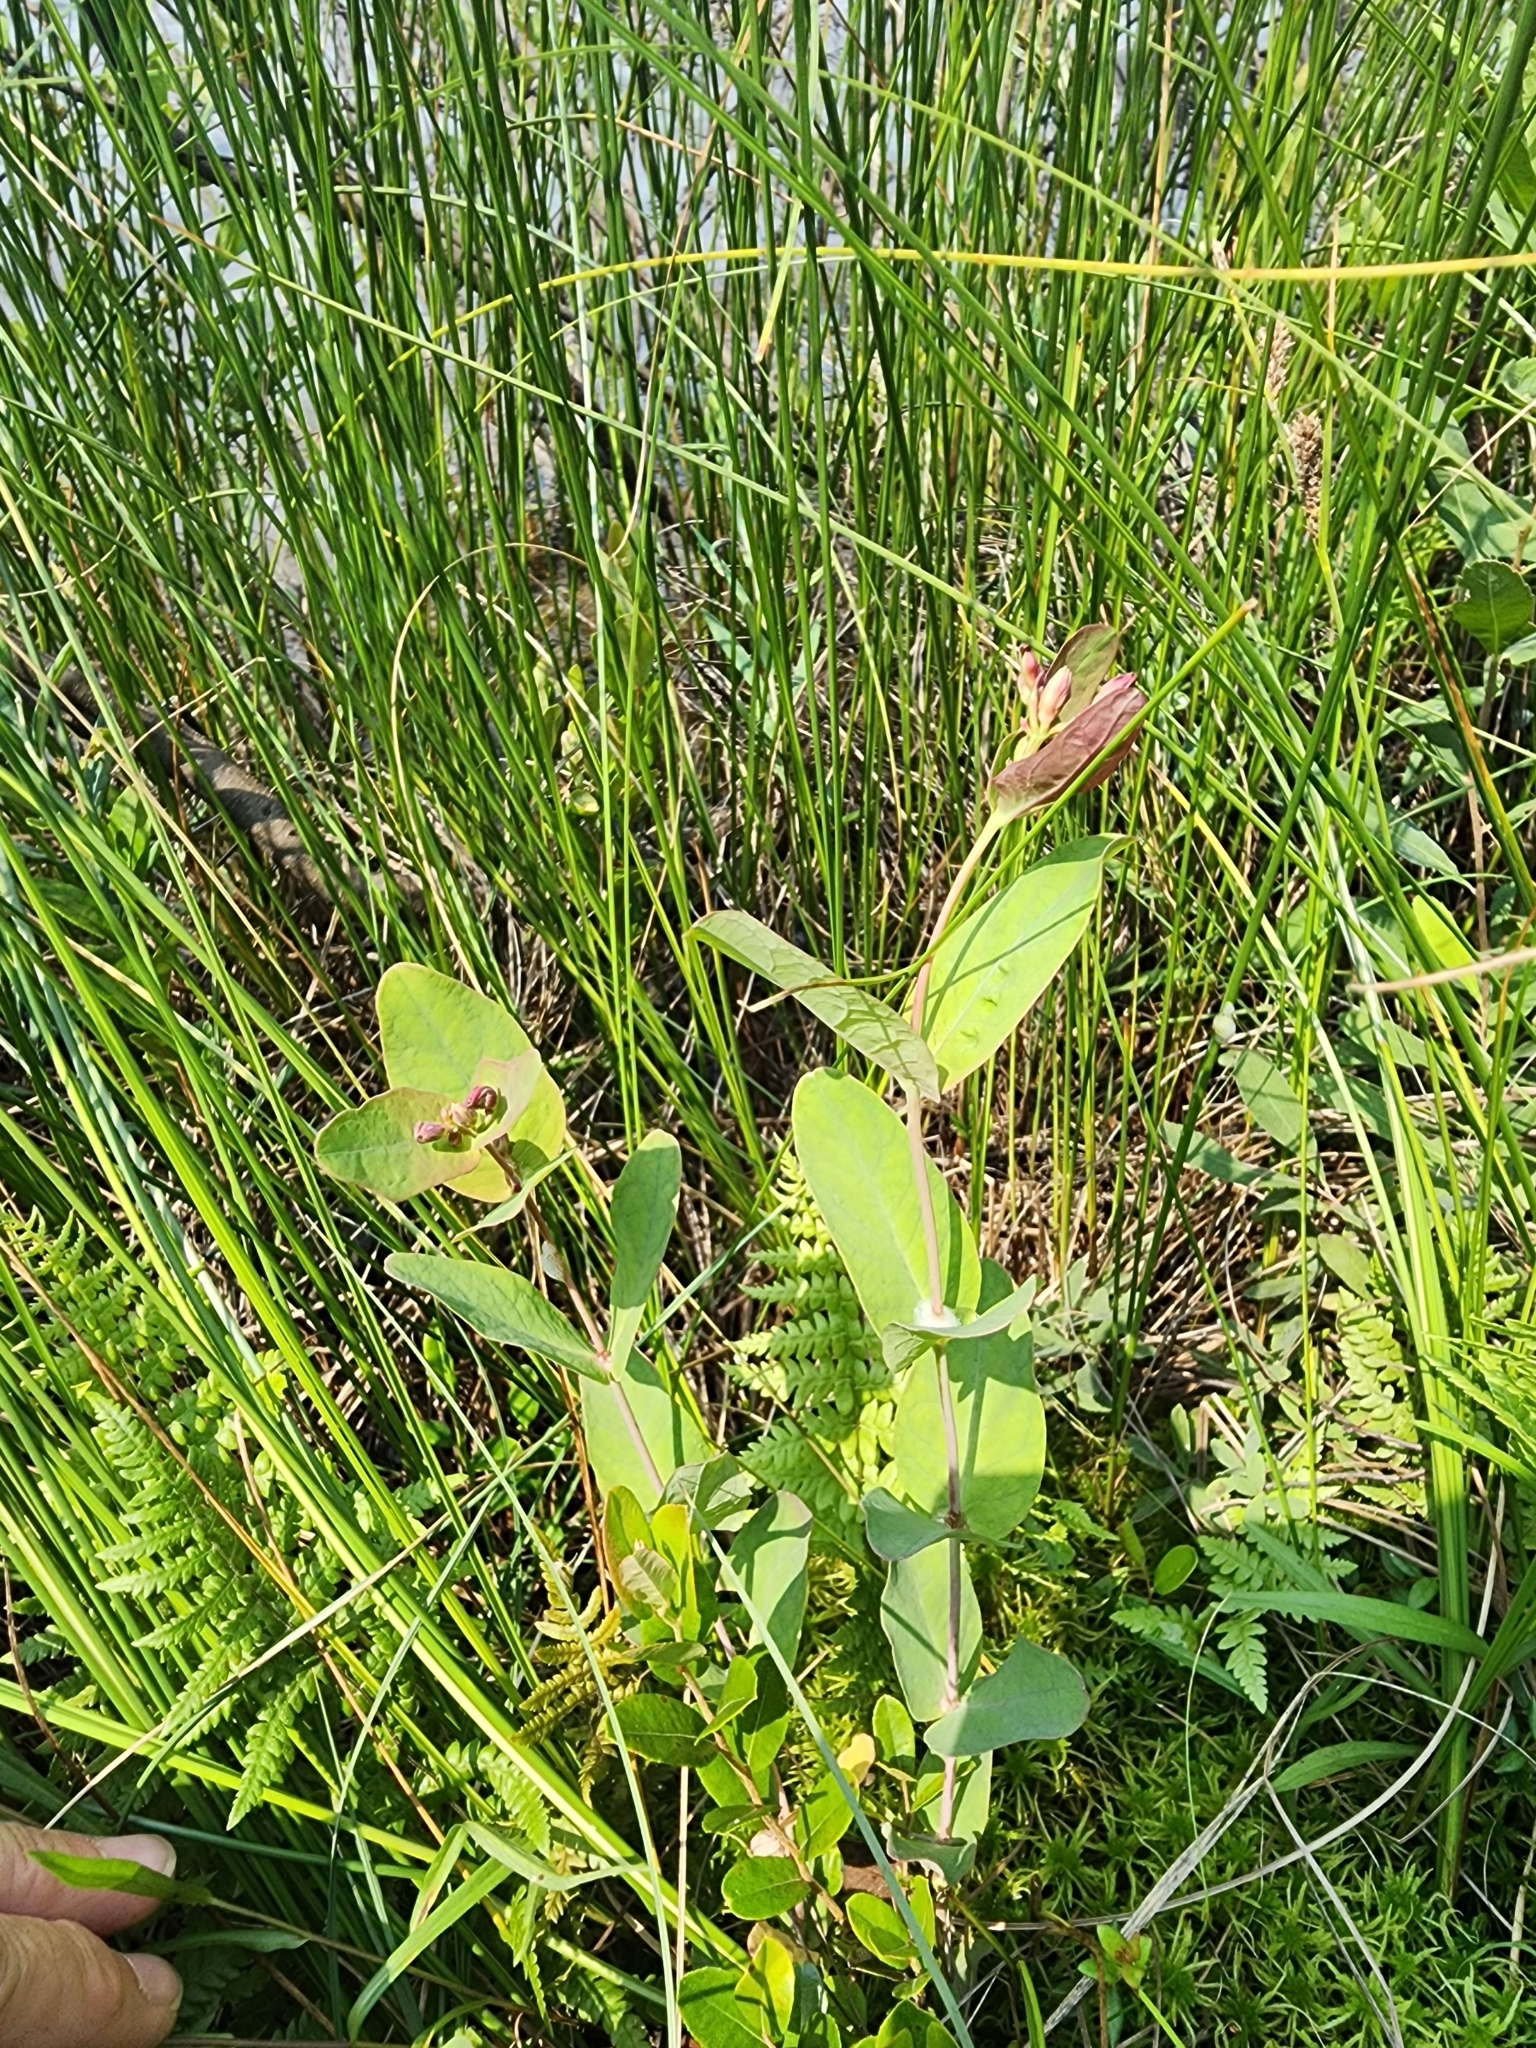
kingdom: Plantae
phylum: Tracheophyta
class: Magnoliopsida
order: Malpighiales
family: Hypericaceae
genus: Triadenum
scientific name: Triadenum fraseri
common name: Fraser's marsh st. johnswort
